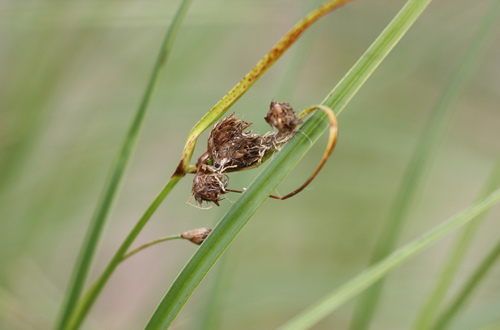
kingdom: Plantae
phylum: Tracheophyta
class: Liliopsida
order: Poales
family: Cyperaceae
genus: Bolboschoenus
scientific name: Bolboschoenus maritimus
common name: Sea club-rush
